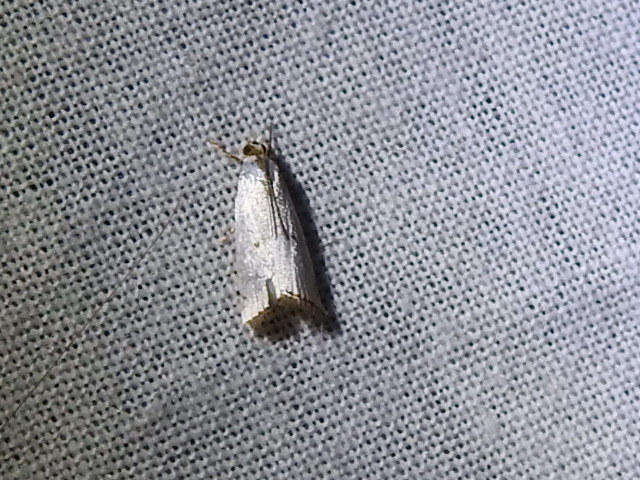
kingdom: Animalia
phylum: Arthropoda
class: Insecta
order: Lepidoptera
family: Crambidae
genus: Argyria
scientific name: Argyria pusillalis
